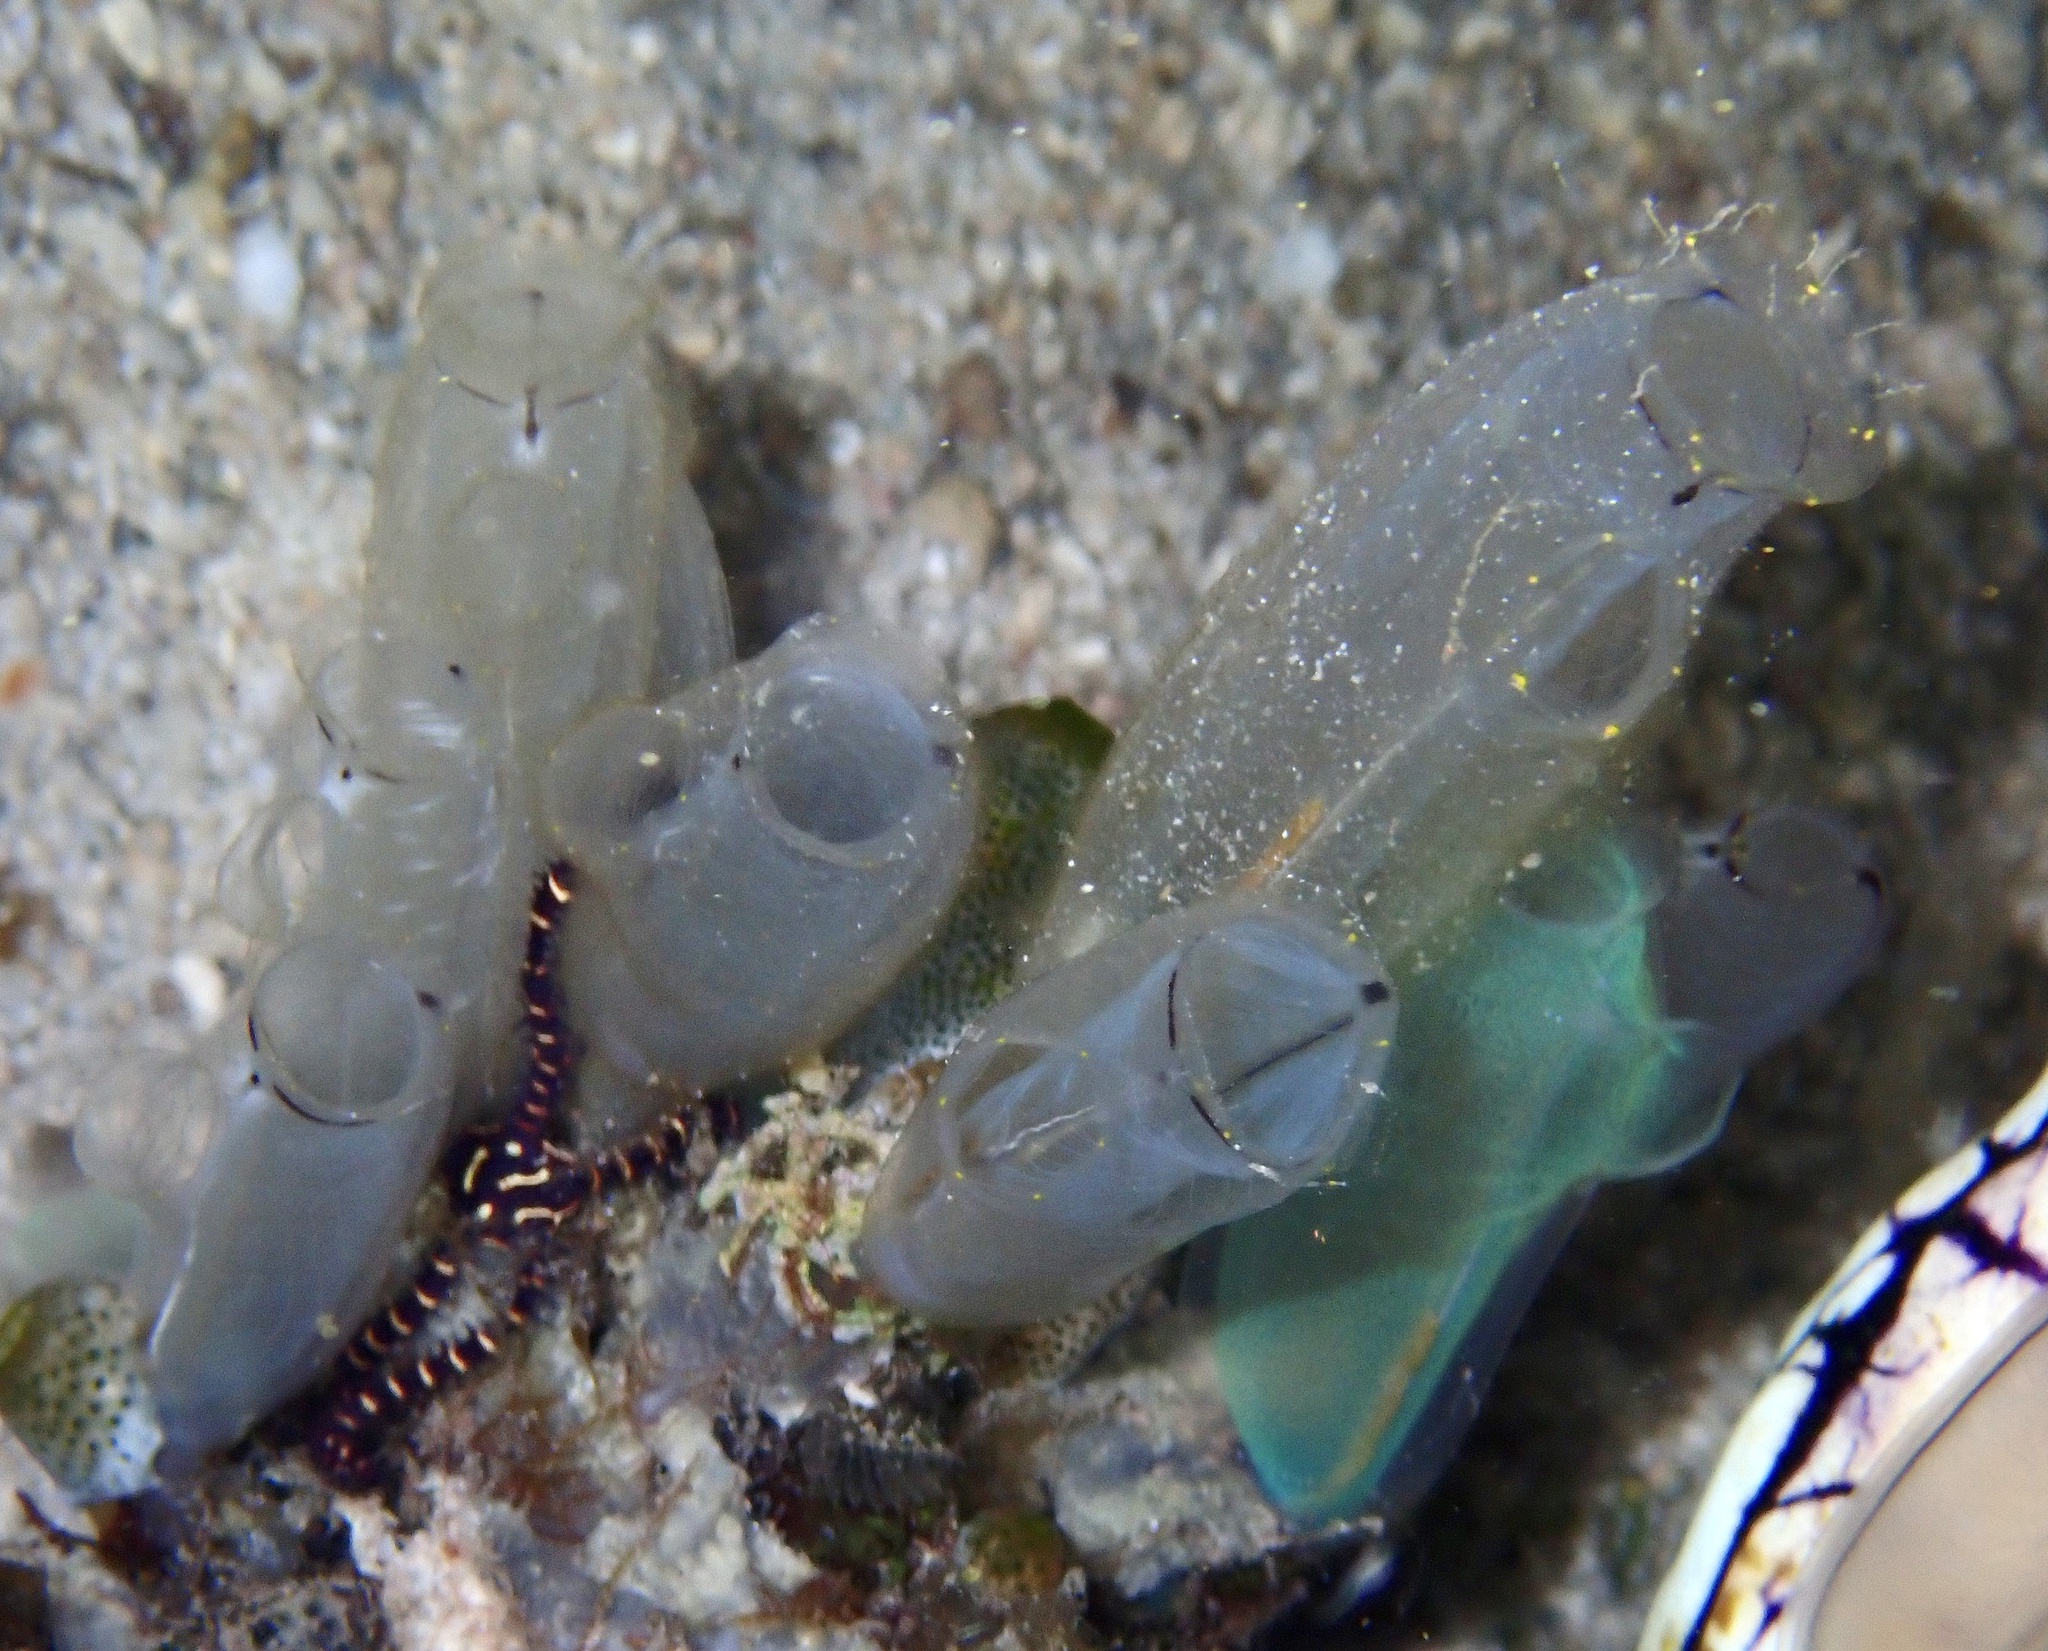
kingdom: Animalia
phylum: Chordata
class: Ascidiacea
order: Aplousobranchia
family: Diazonidae
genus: Rhopalaea
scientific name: Rhopalaea macrothorax
